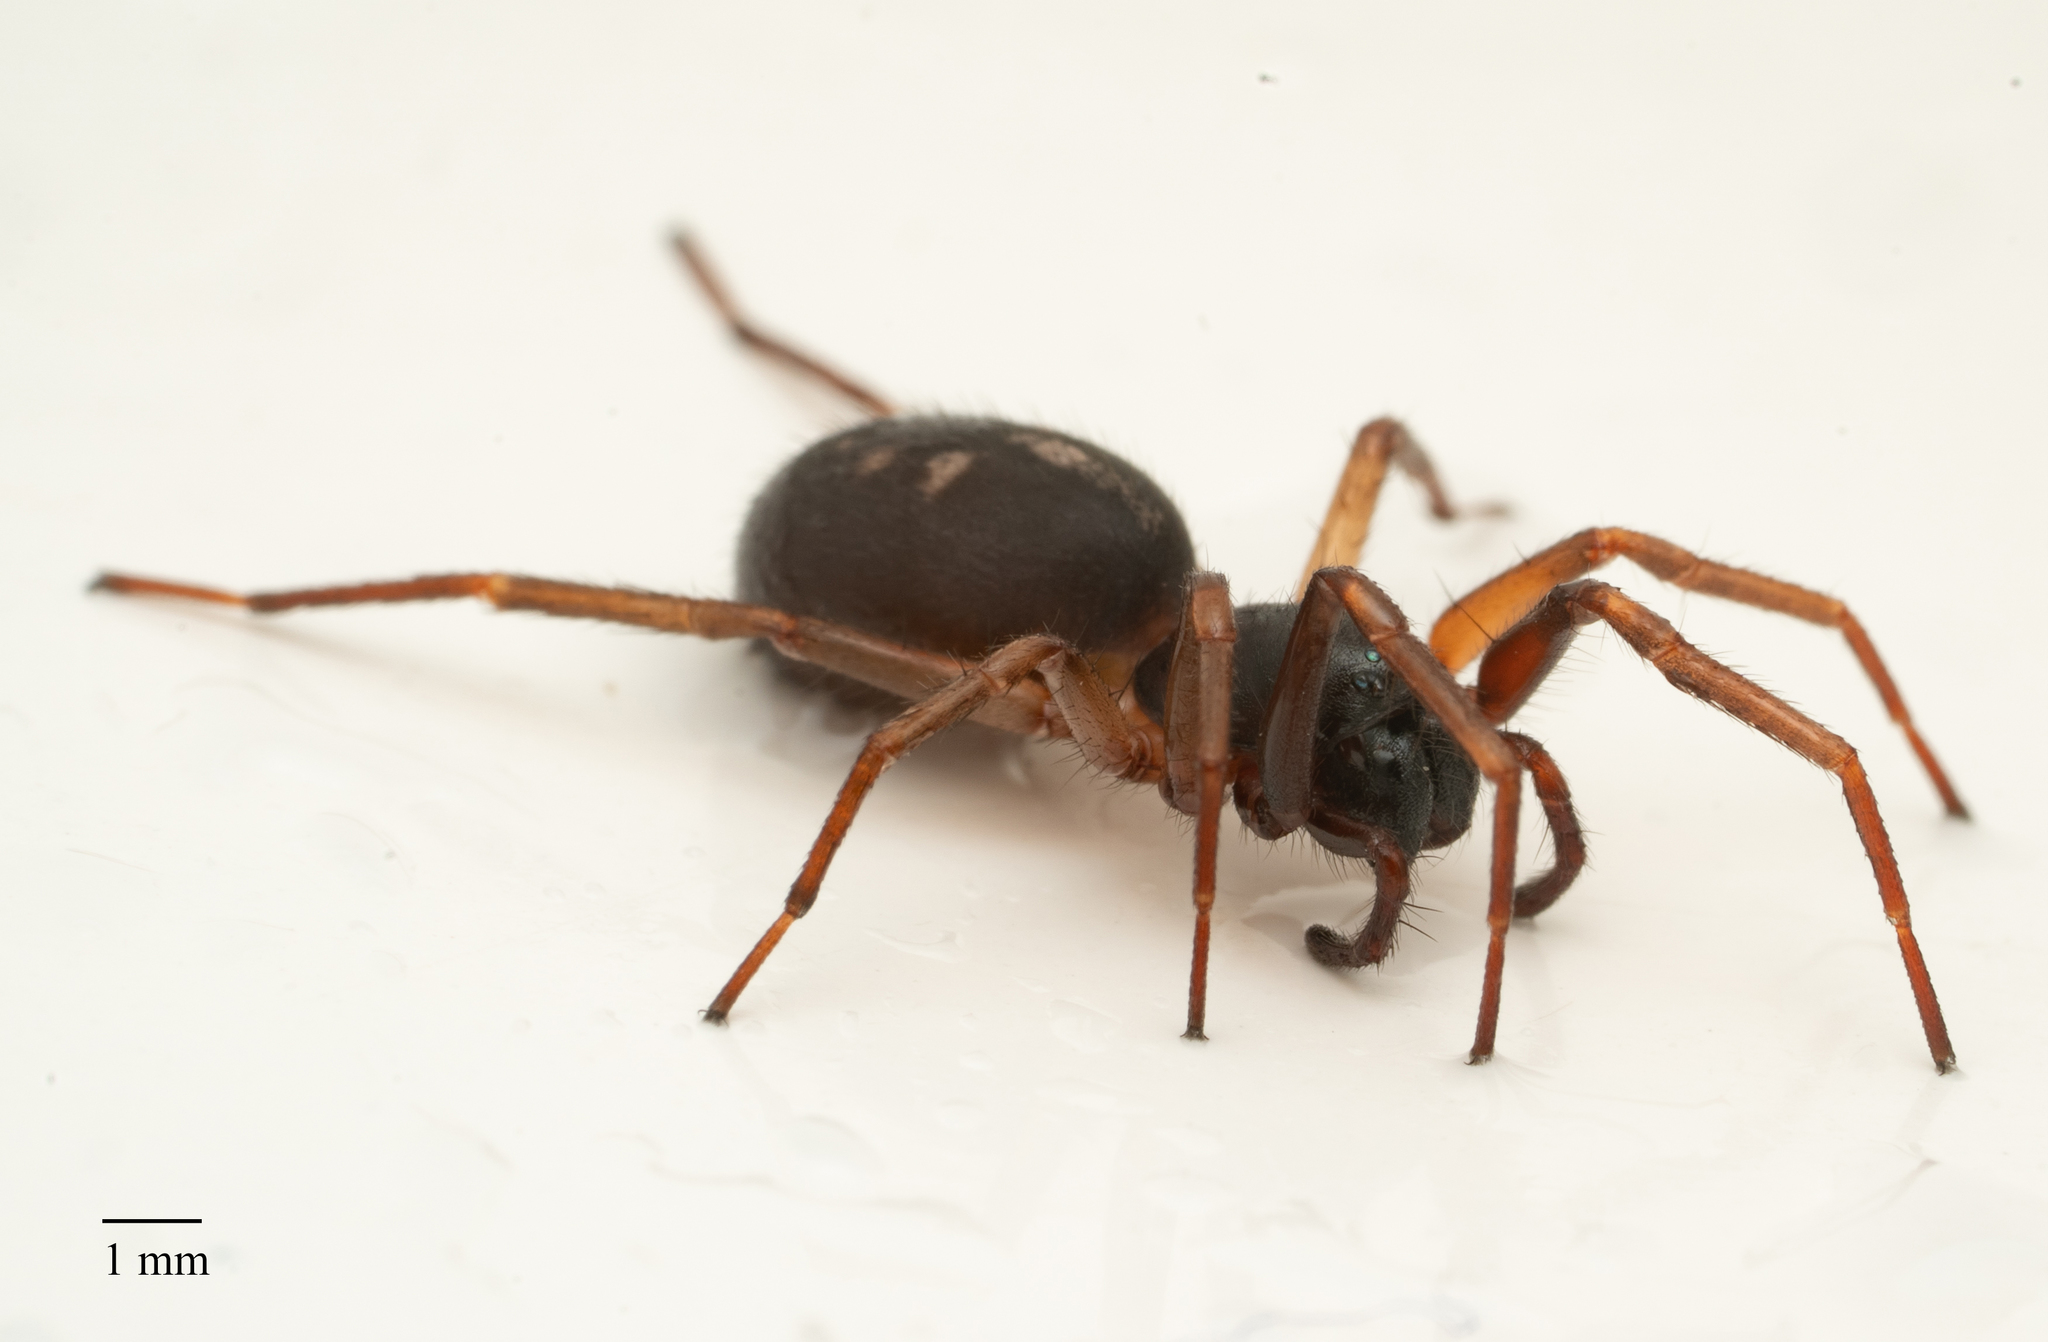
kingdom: Animalia
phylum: Arthropoda
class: Arachnida
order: Araneae
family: Corinnidae
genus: Falconina
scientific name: Falconina gracilis
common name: Antmimic spider
